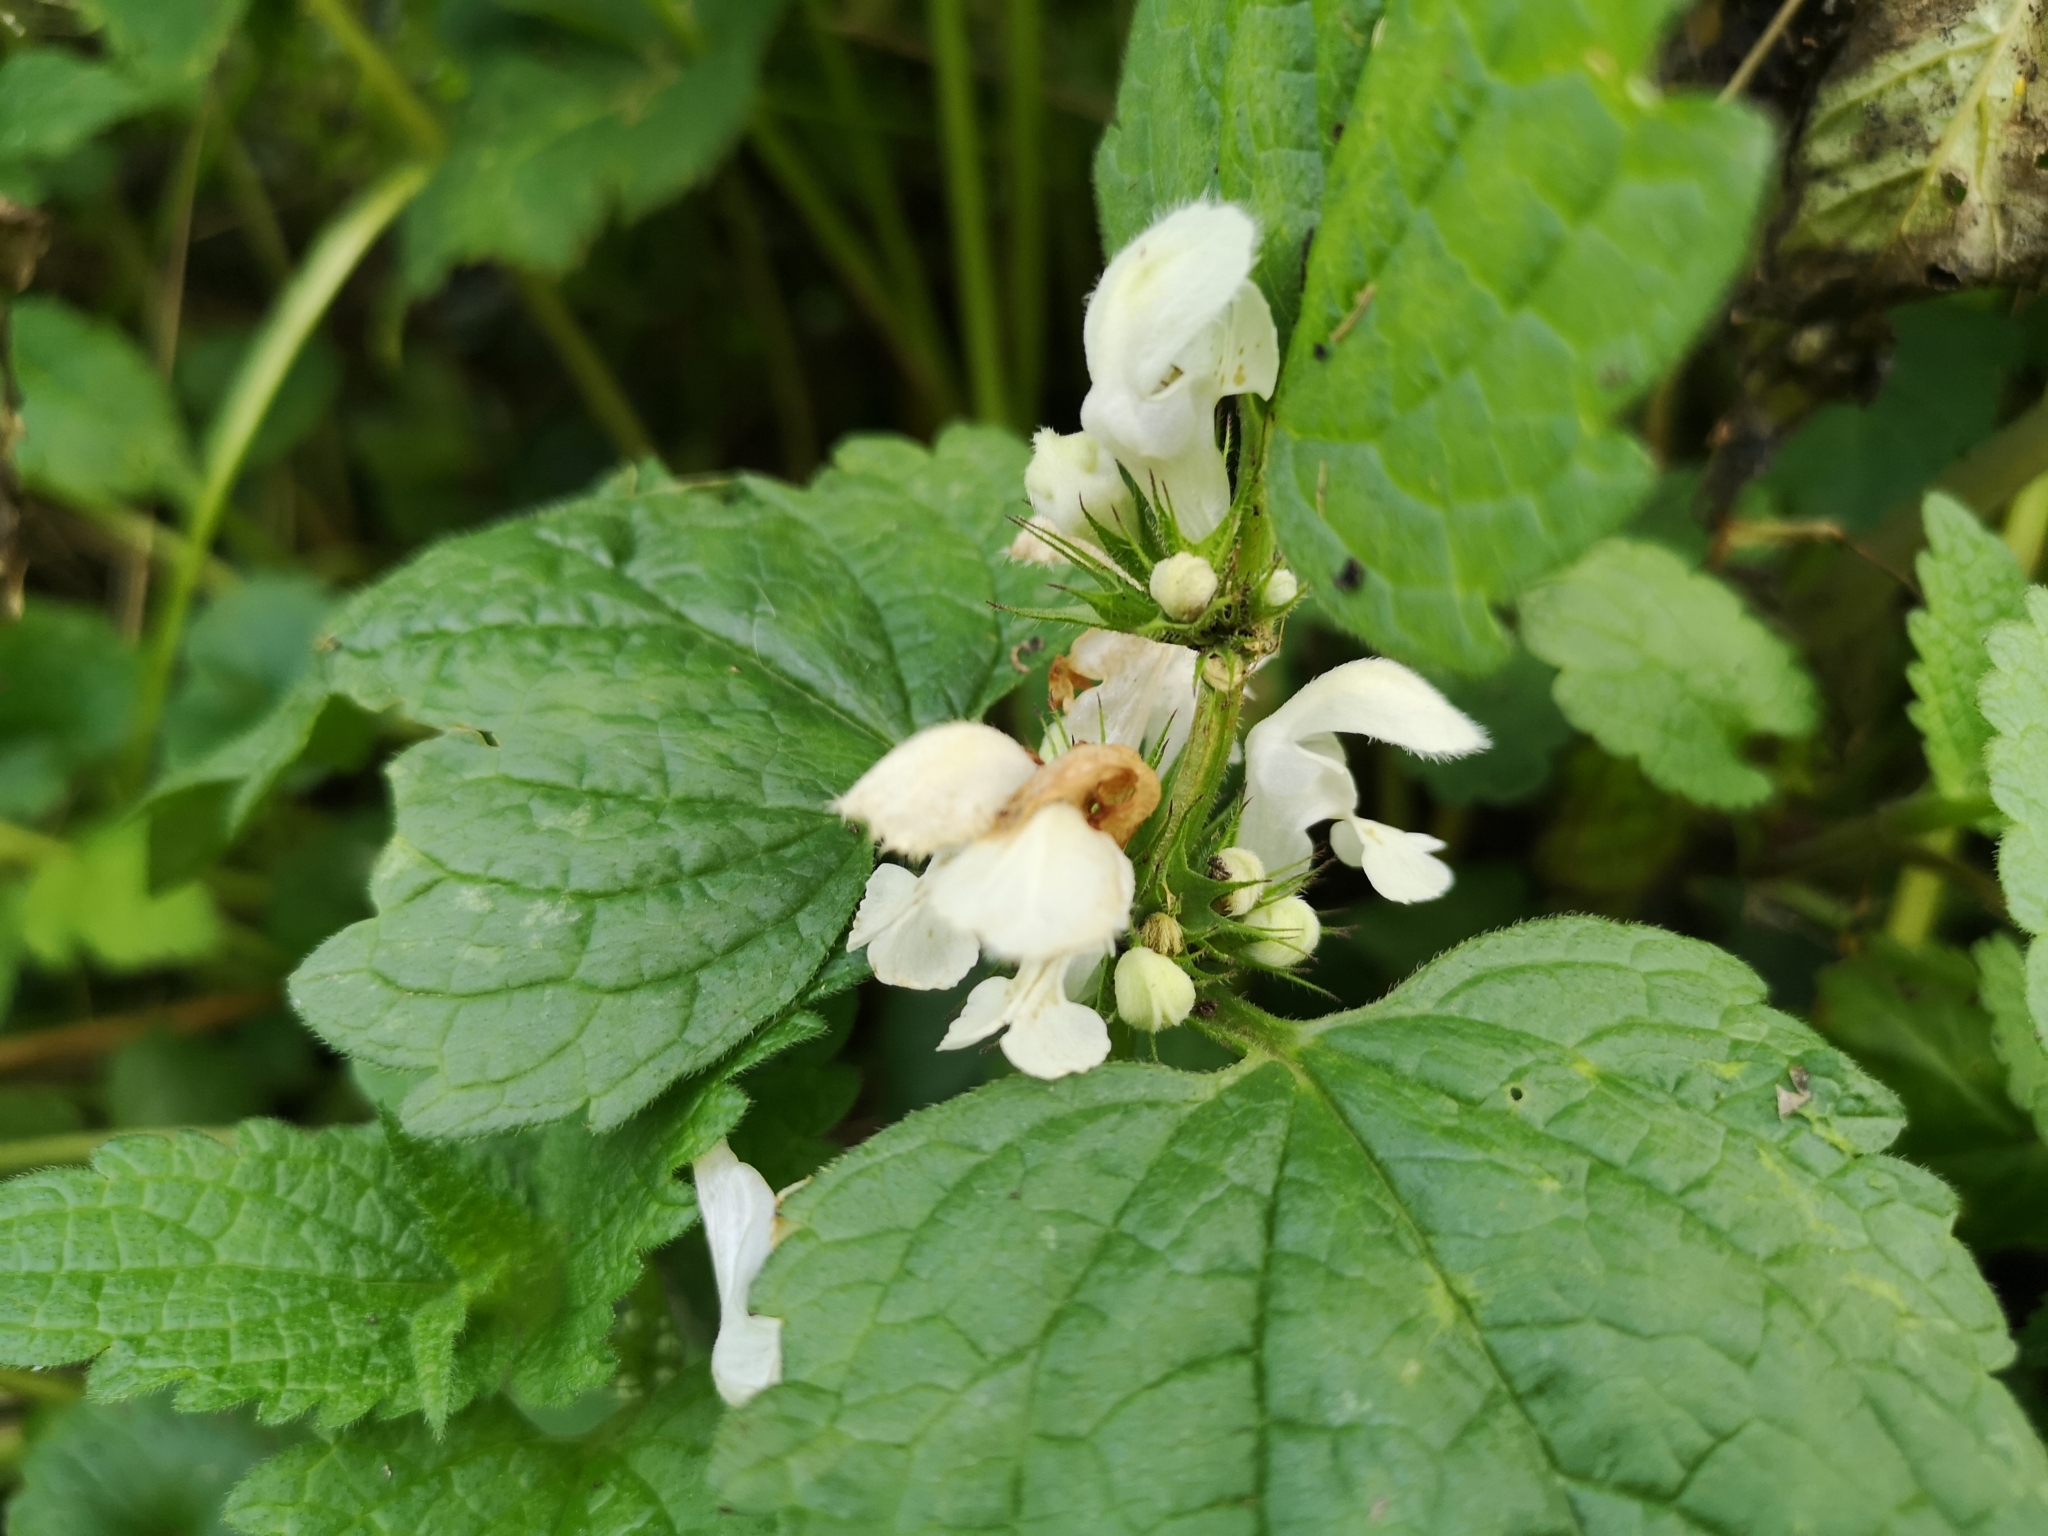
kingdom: Plantae
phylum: Tracheophyta
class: Magnoliopsida
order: Lamiales
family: Lamiaceae
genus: Lamium
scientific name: Lamium album
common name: White dead-nettle
